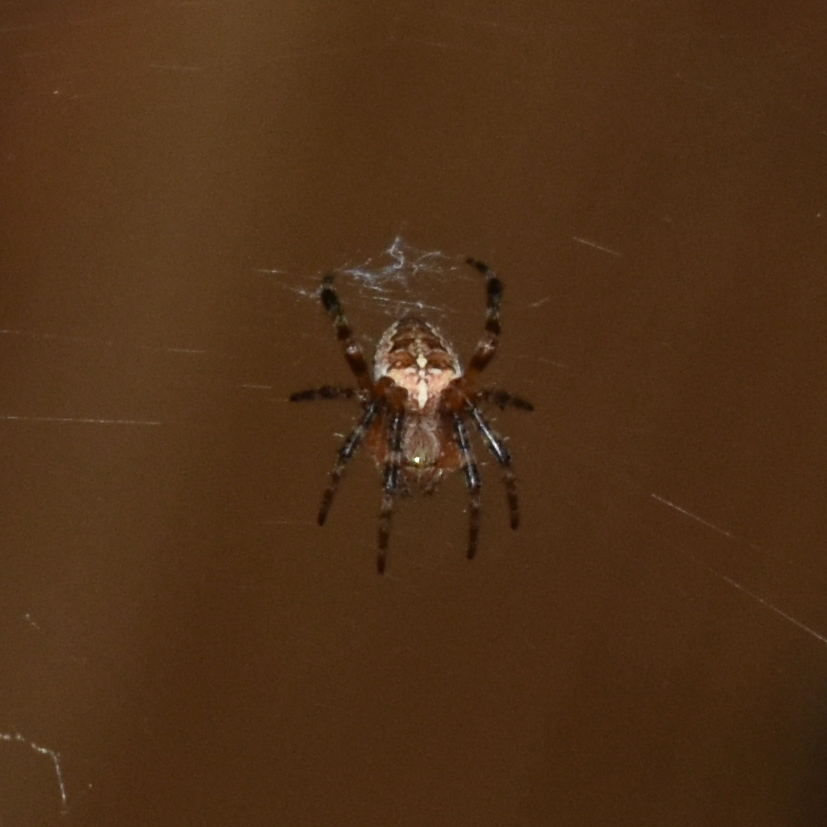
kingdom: Animalia
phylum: Arthropoda
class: Arachnida
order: Araneae
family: Araneidae
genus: Araneus
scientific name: Araneus diadematus
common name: Cross orbweaver
